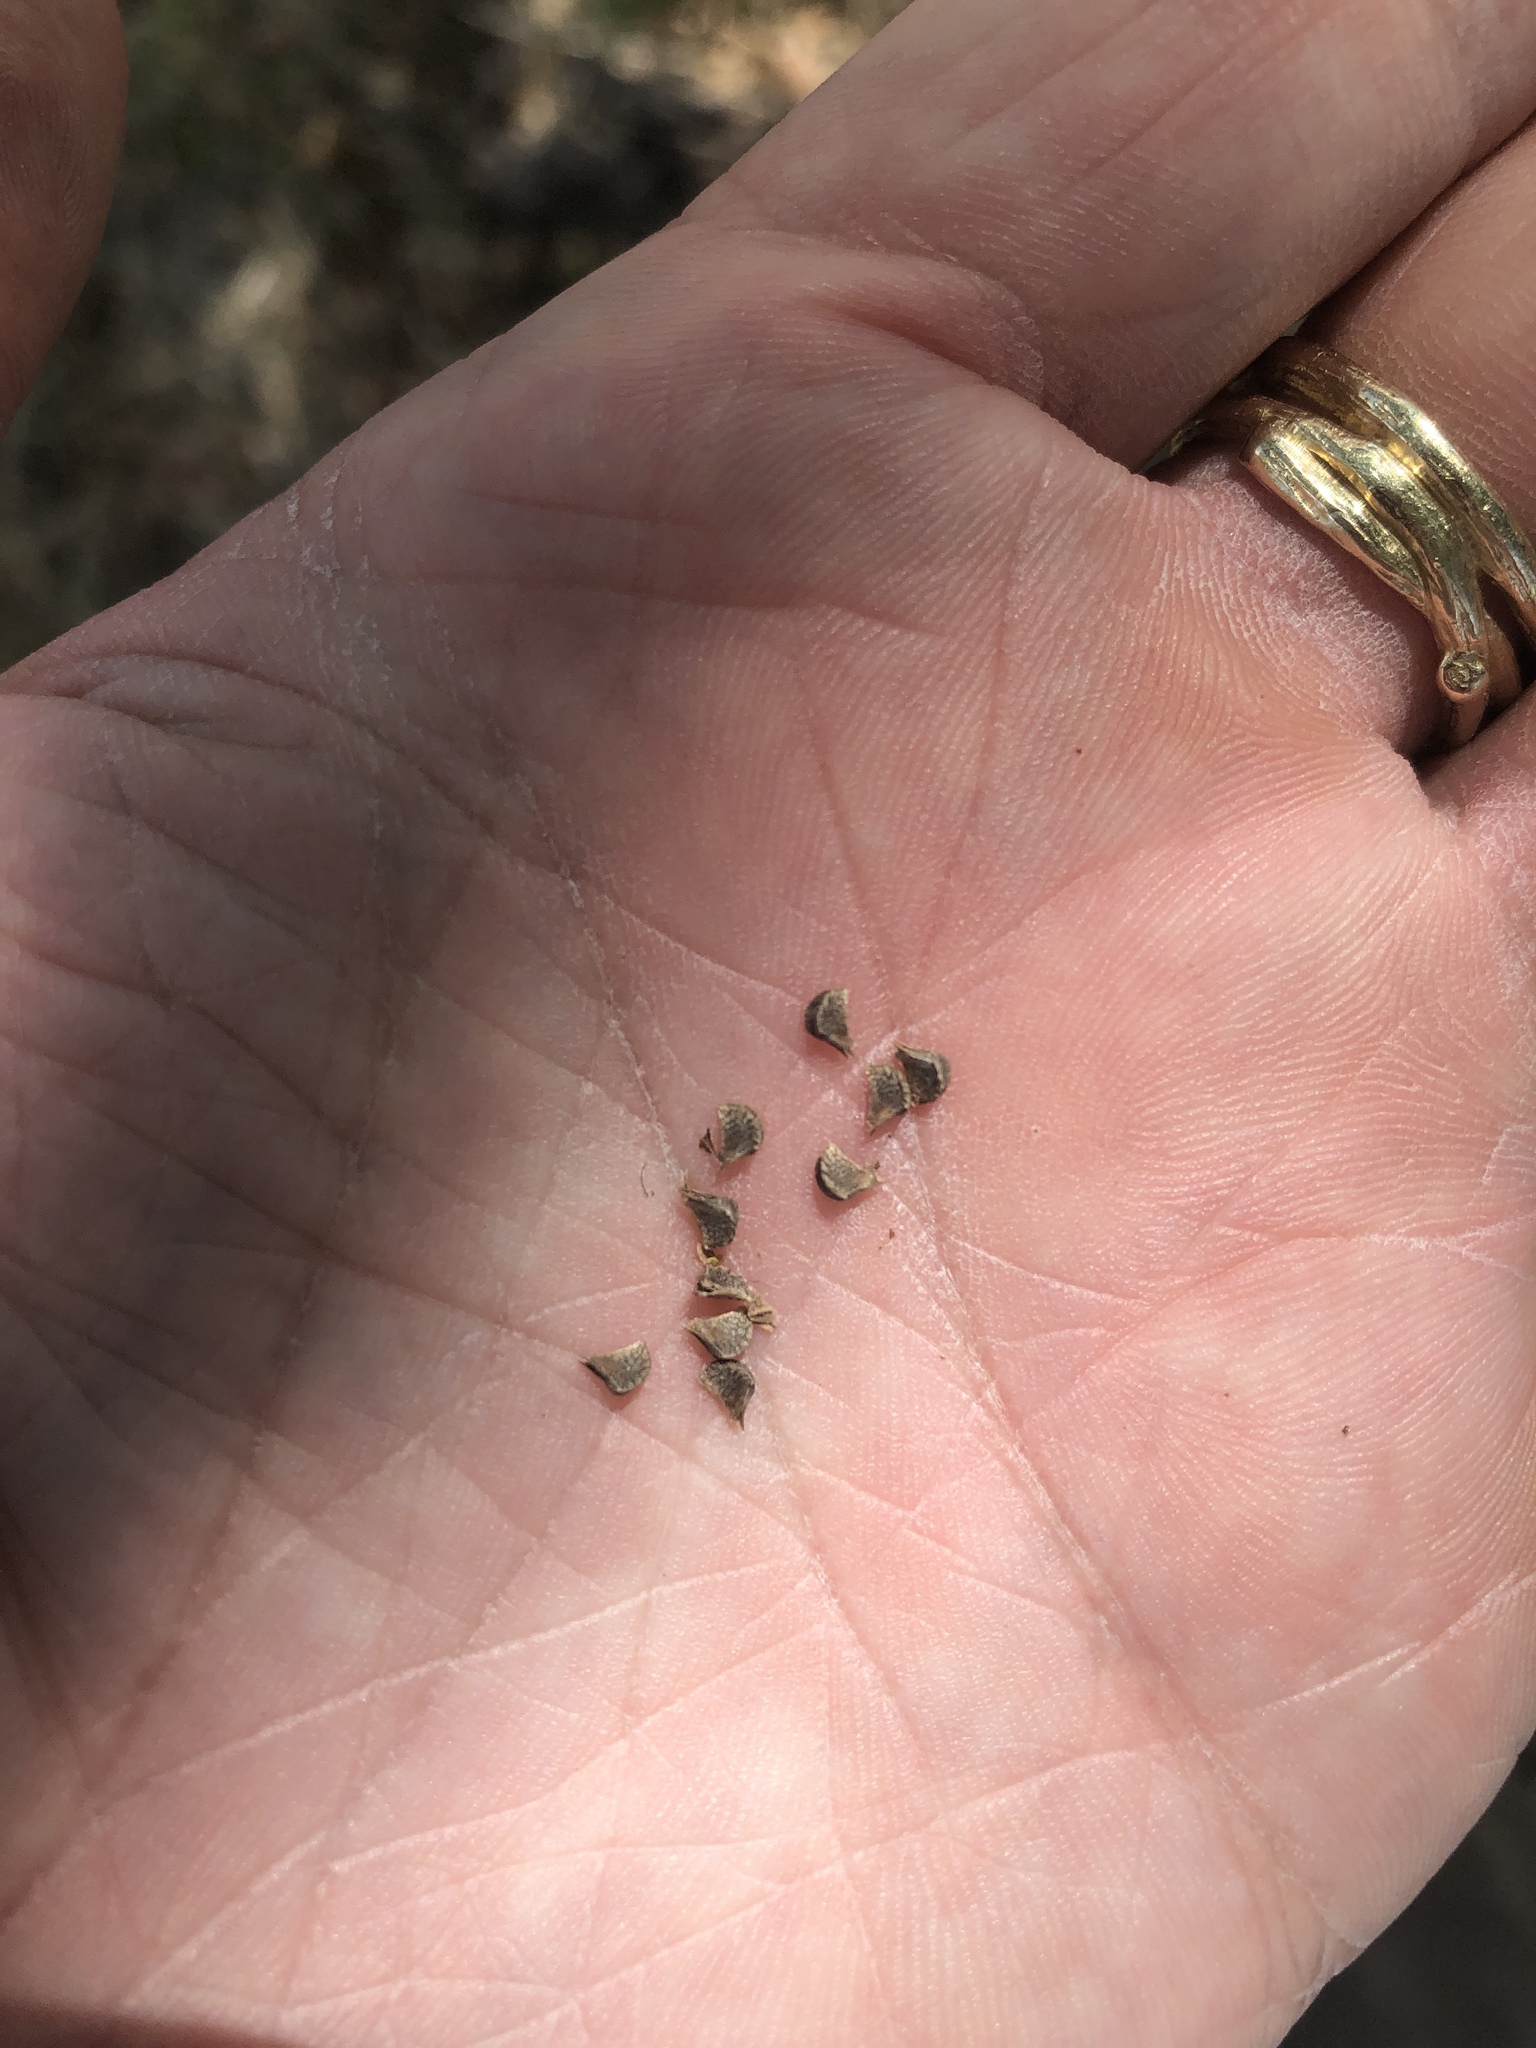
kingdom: Plantae
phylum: Tracheophyta
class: Magnoliopsida
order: Malvales
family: Malvaceae
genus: Sida
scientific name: Sida rhombifolia
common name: Queensland-hemp
